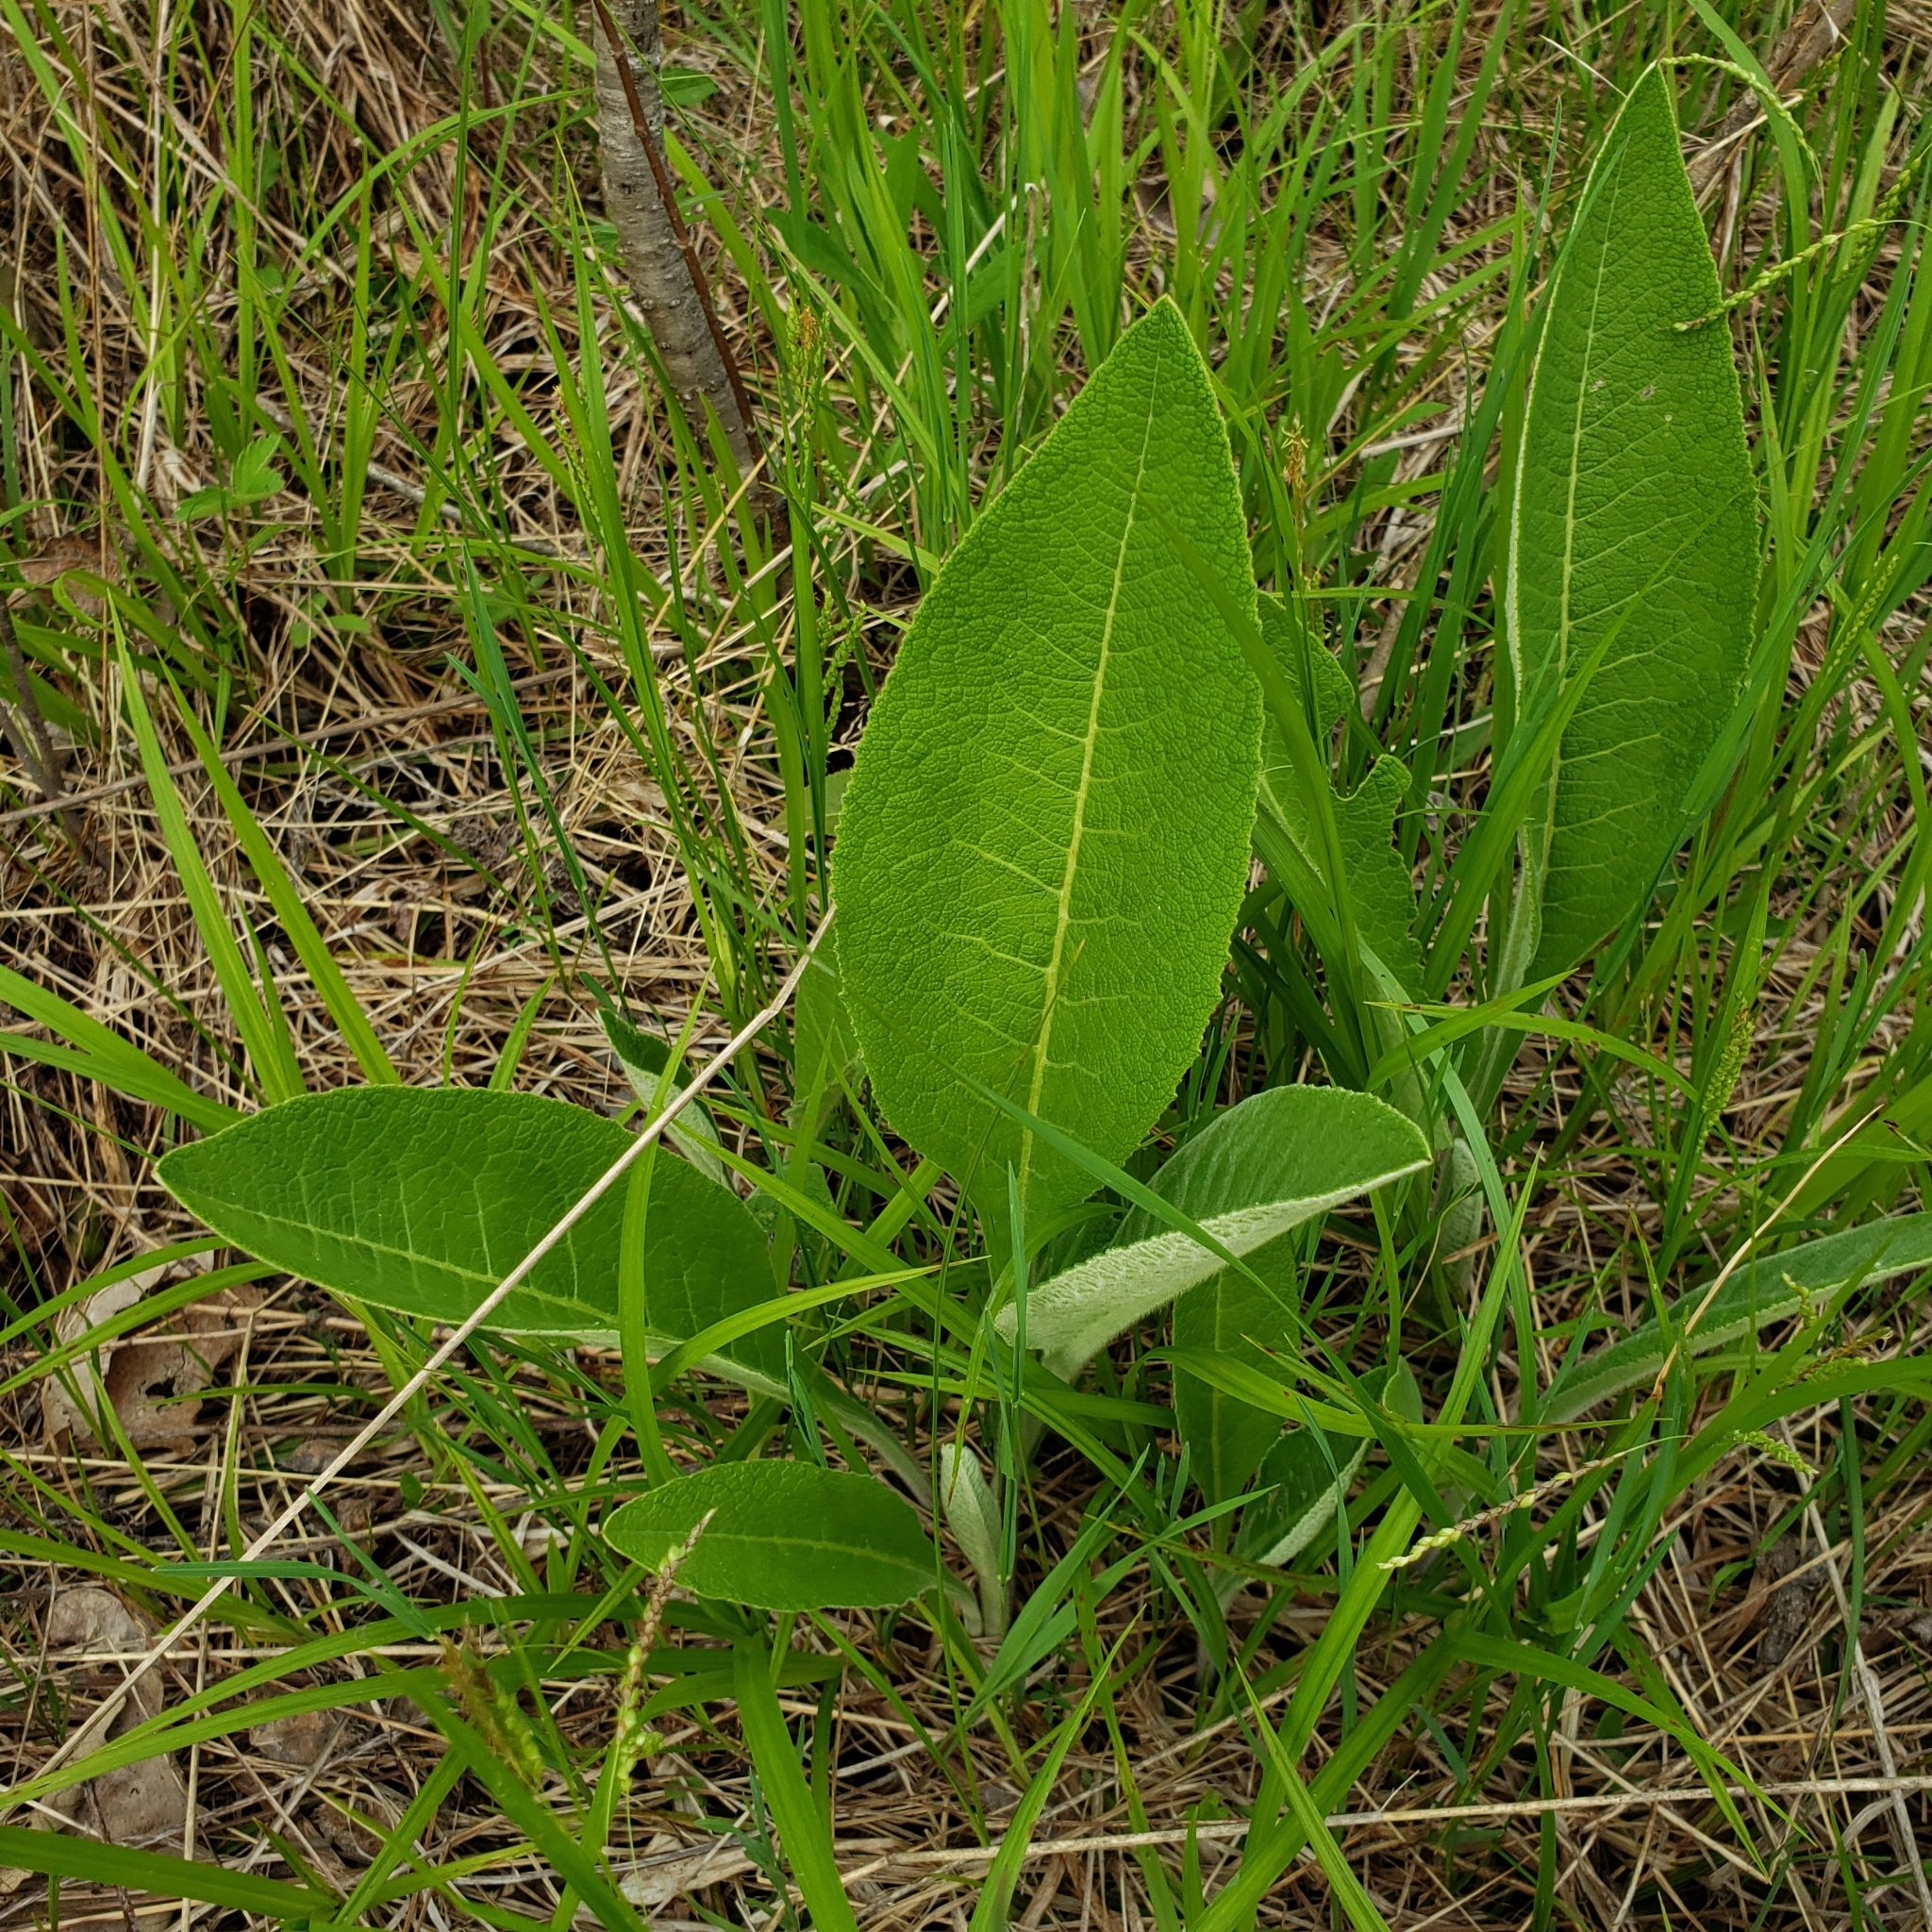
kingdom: Plantae
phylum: Tracheophyta
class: Magnoliopsida
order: Asterales
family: Asteraceae
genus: Inula
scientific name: Inula helenium
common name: Elecampane
